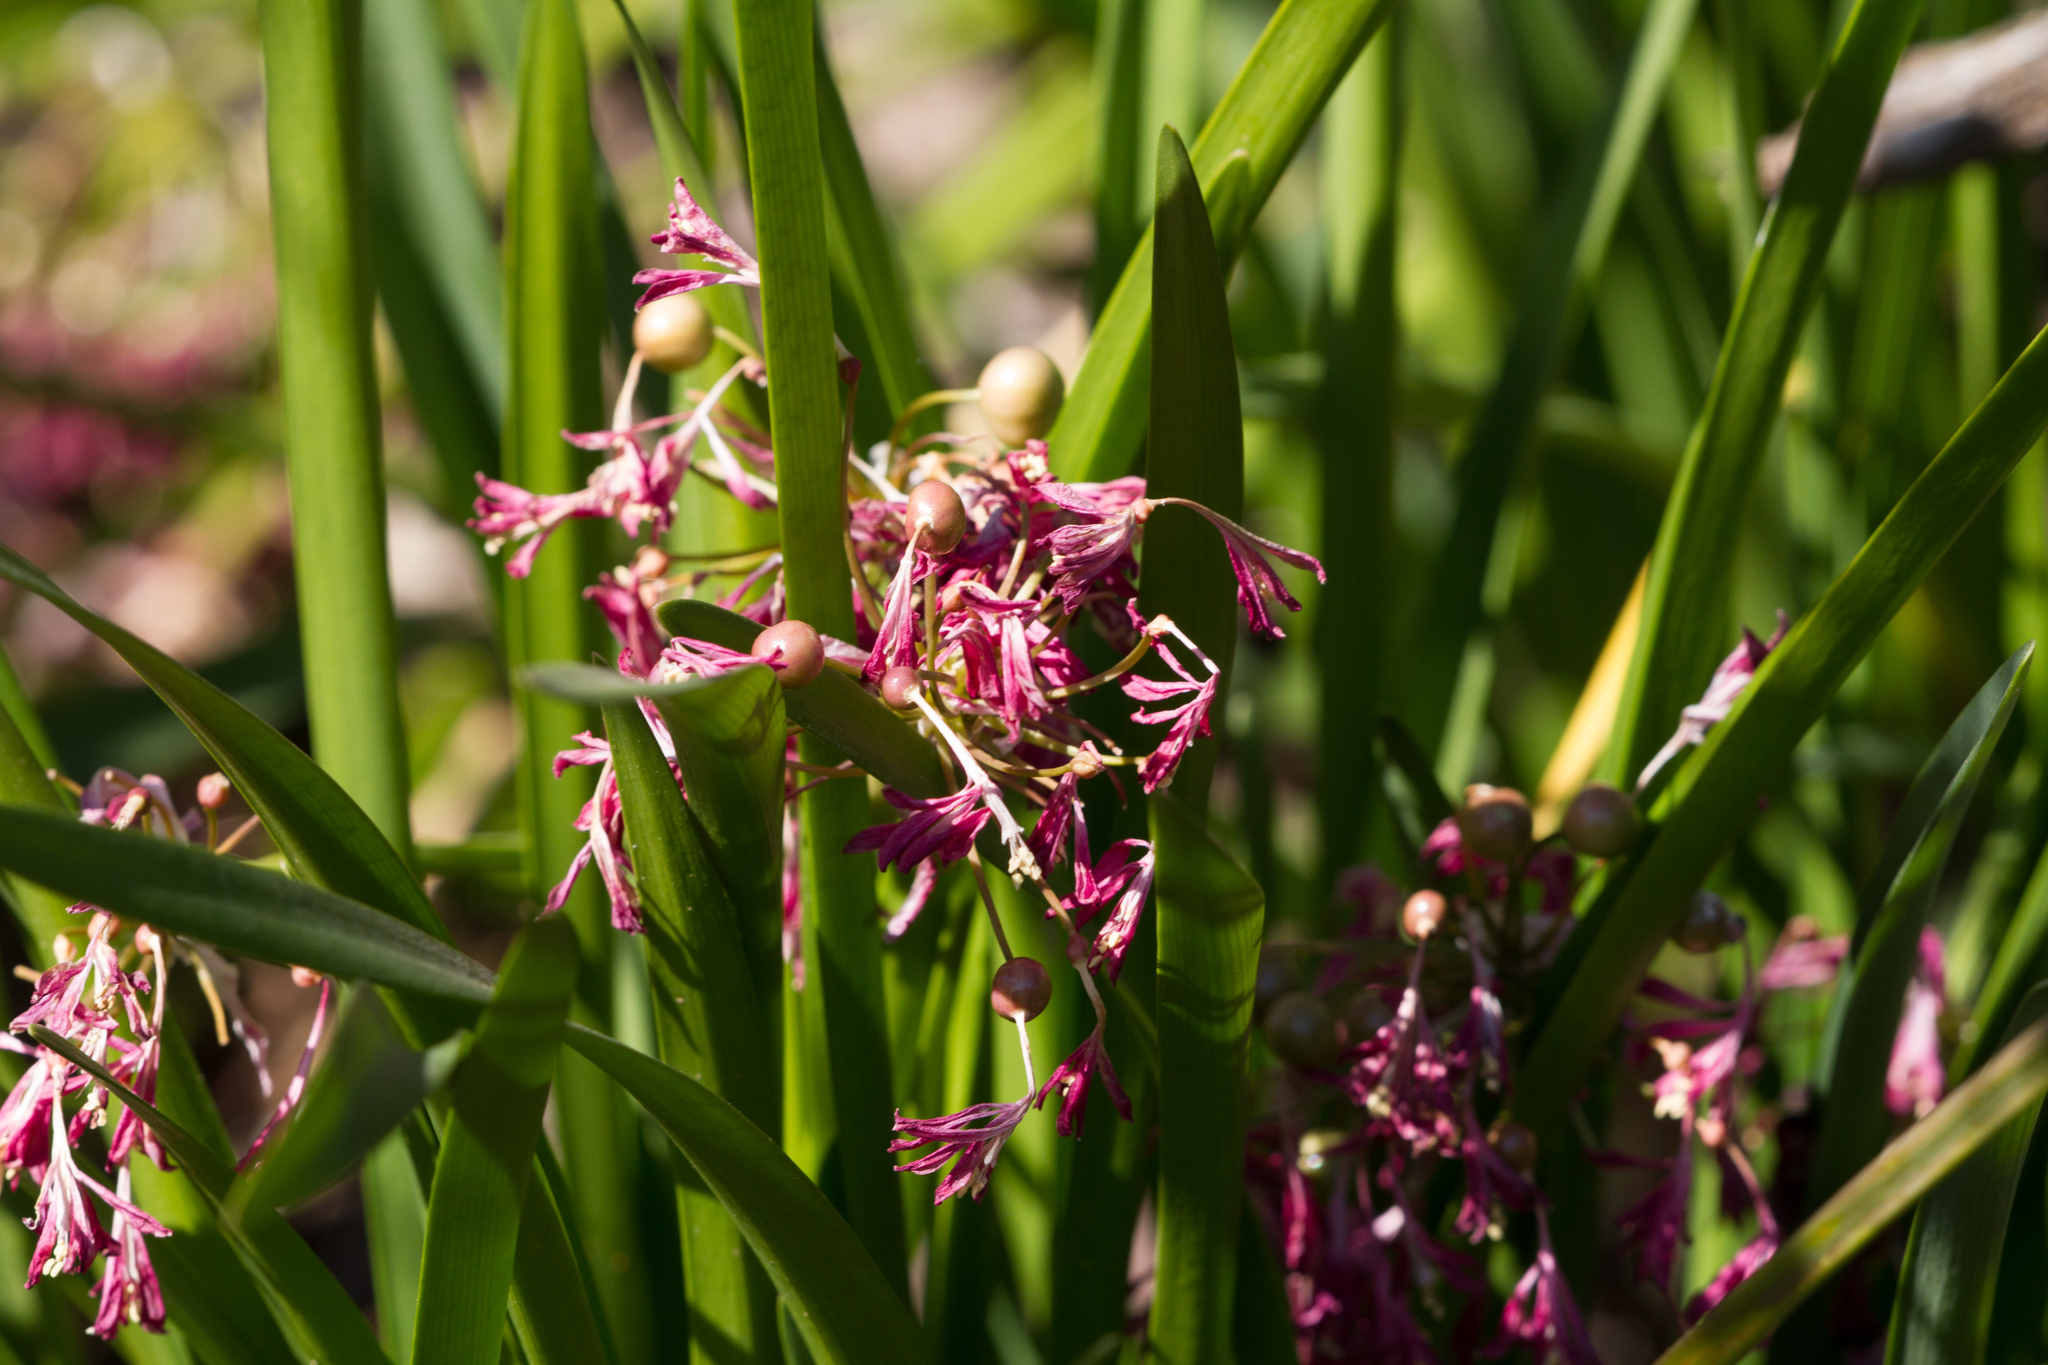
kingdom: Plantae
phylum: Tracheophyta
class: Liliopsida
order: Asparagales
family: Amaryllidaceae
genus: Calostemma
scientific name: Calostemma purpureum
